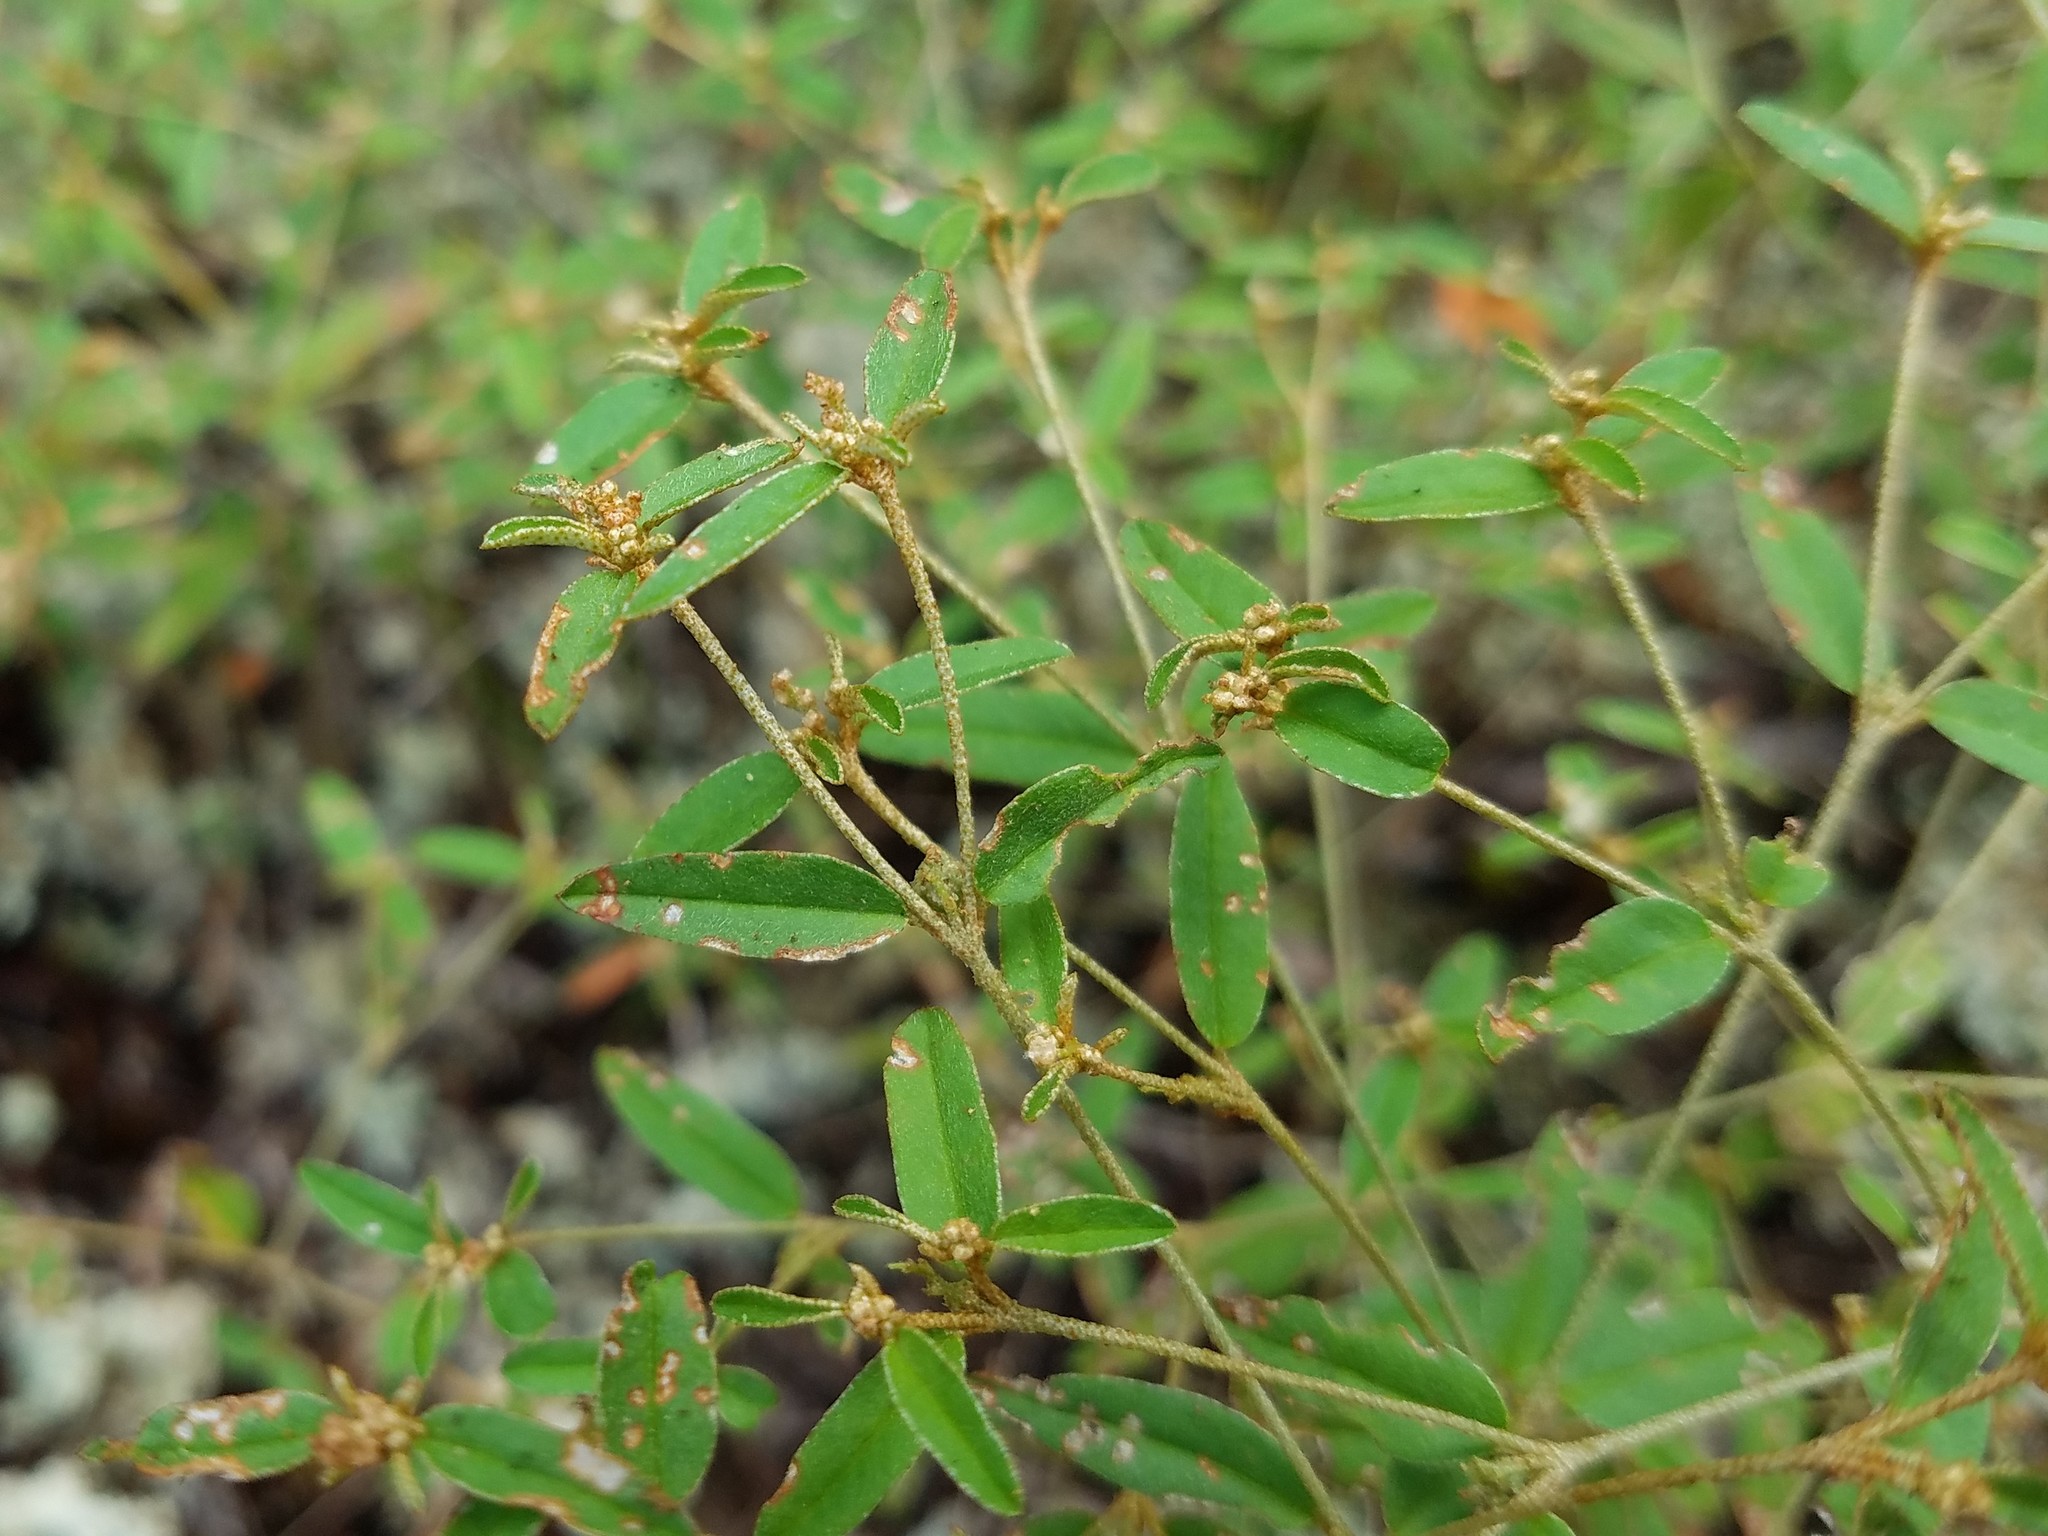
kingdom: Plantae
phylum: Tracheophyta
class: Magnoliopsida
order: Malpighiales
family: Euphorbiaceae
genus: Croton
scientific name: Croton michauxii
